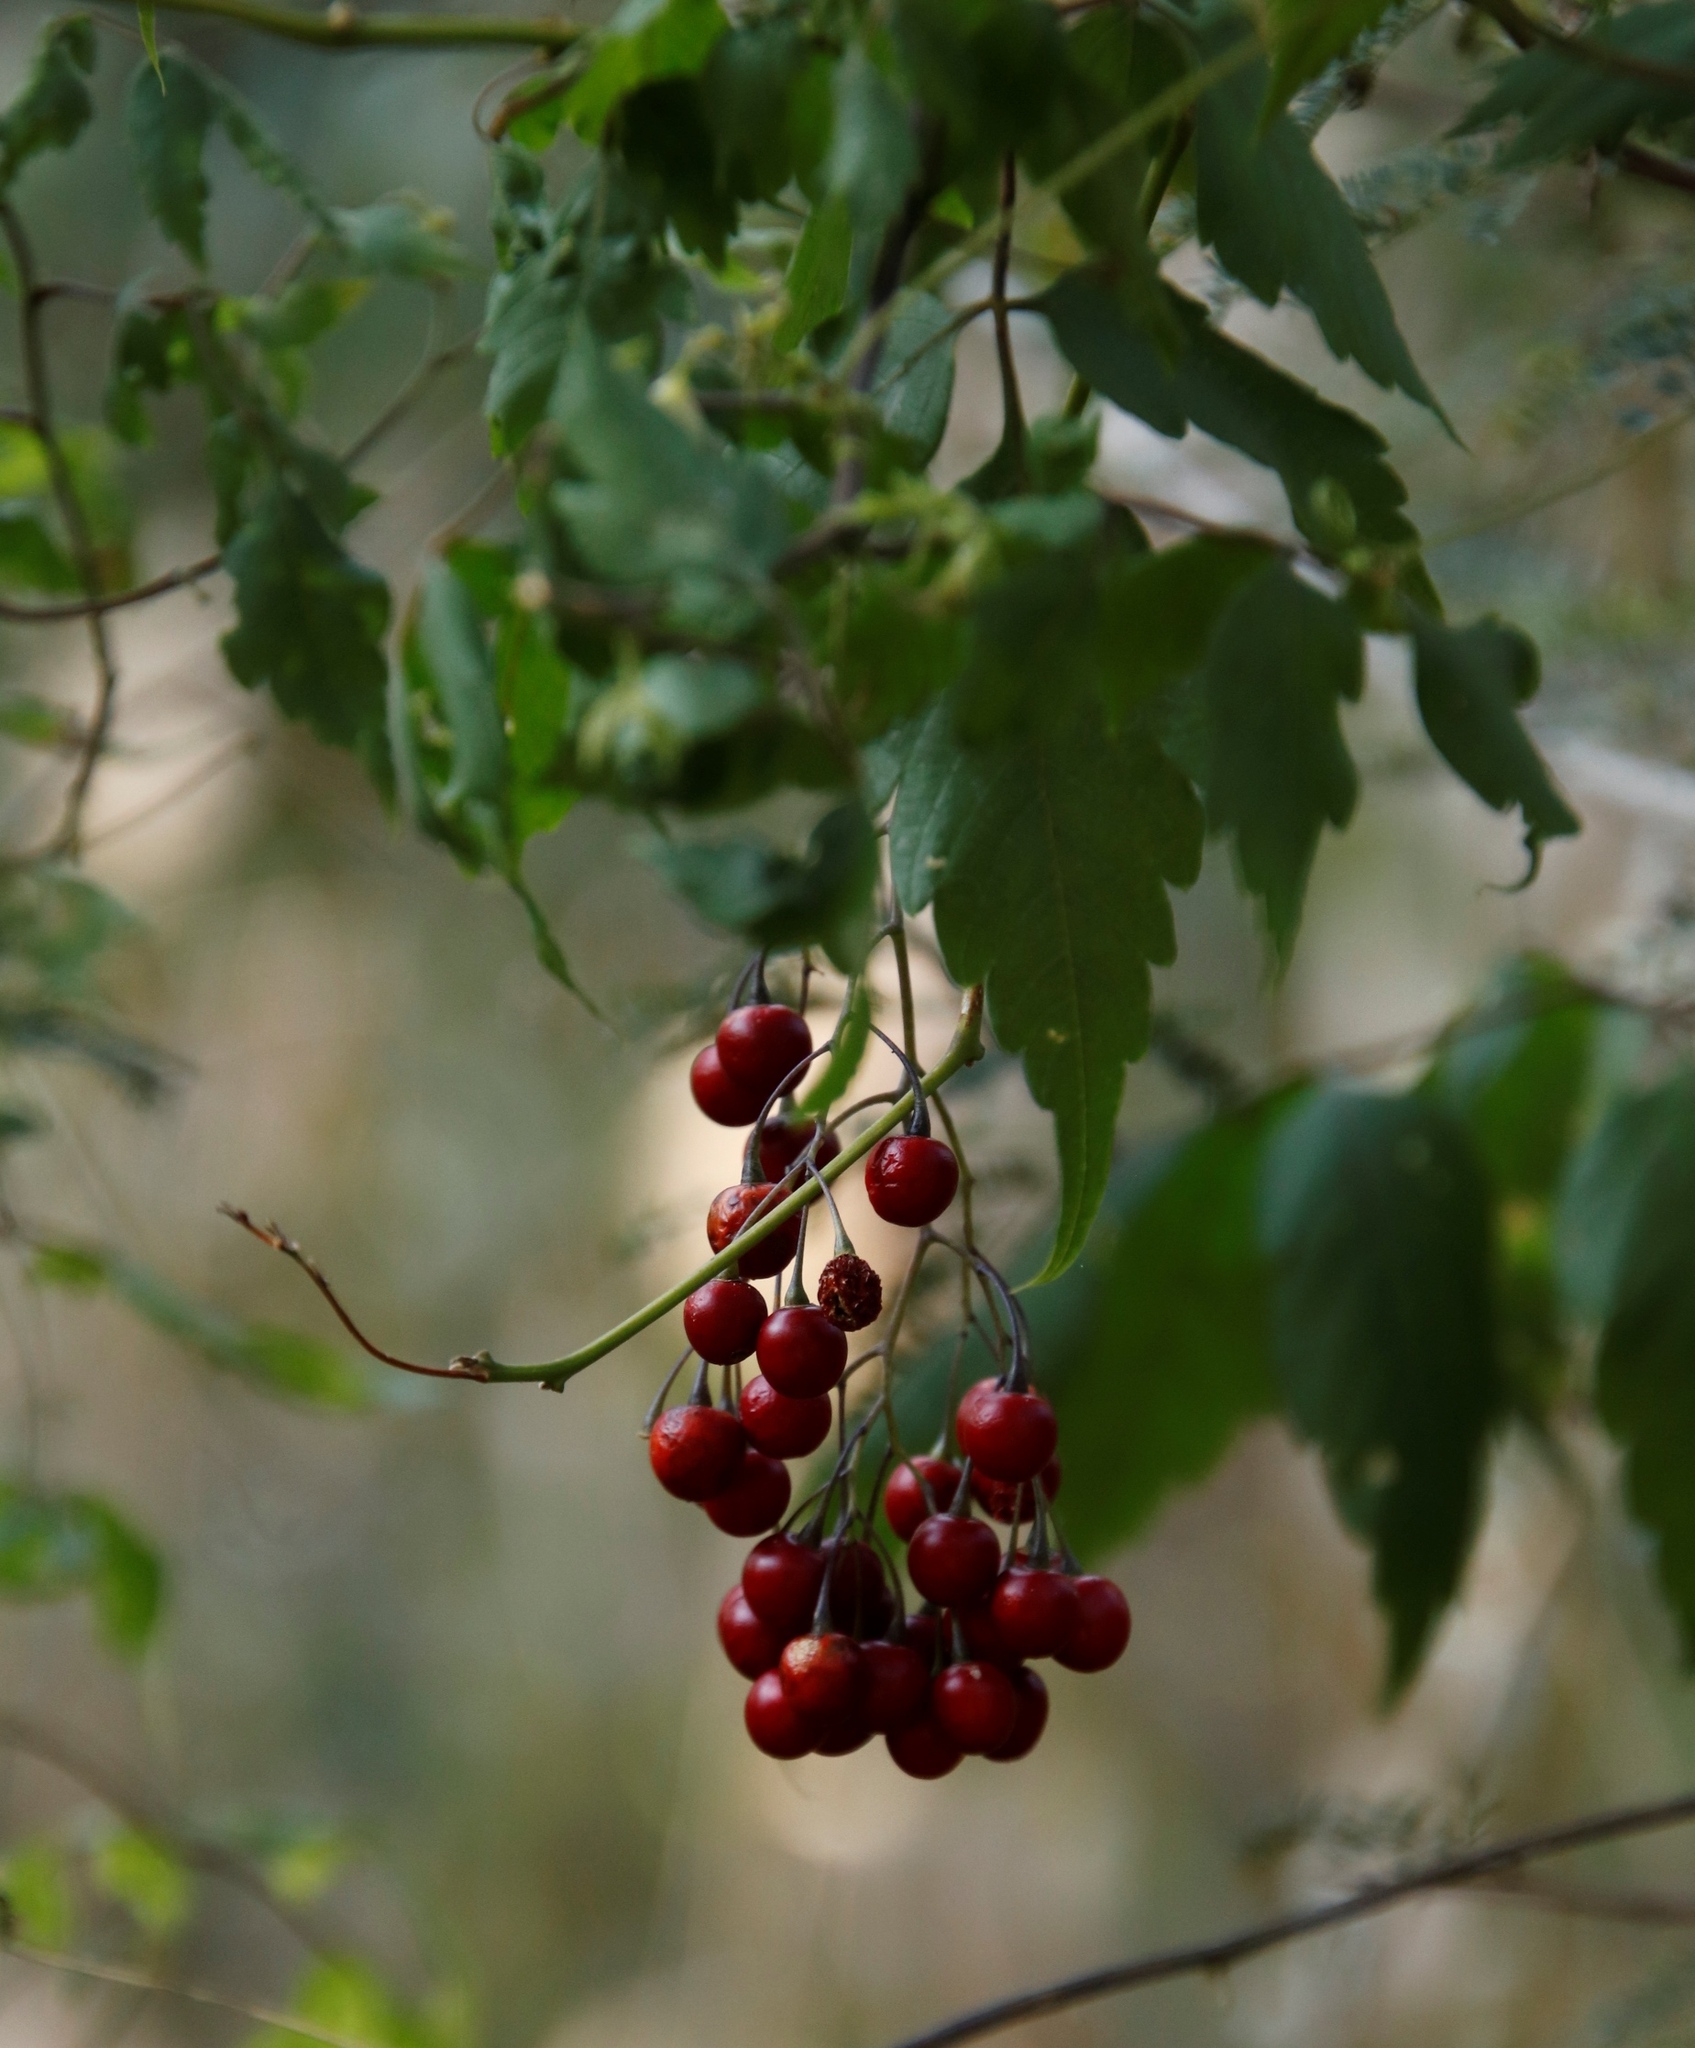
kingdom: Plantae
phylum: Tracheophyta
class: Magnoliopsida
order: Solanales
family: Solanaceae
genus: Solanum
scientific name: Solanum seaforthianum
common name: Brazilian nightshade
